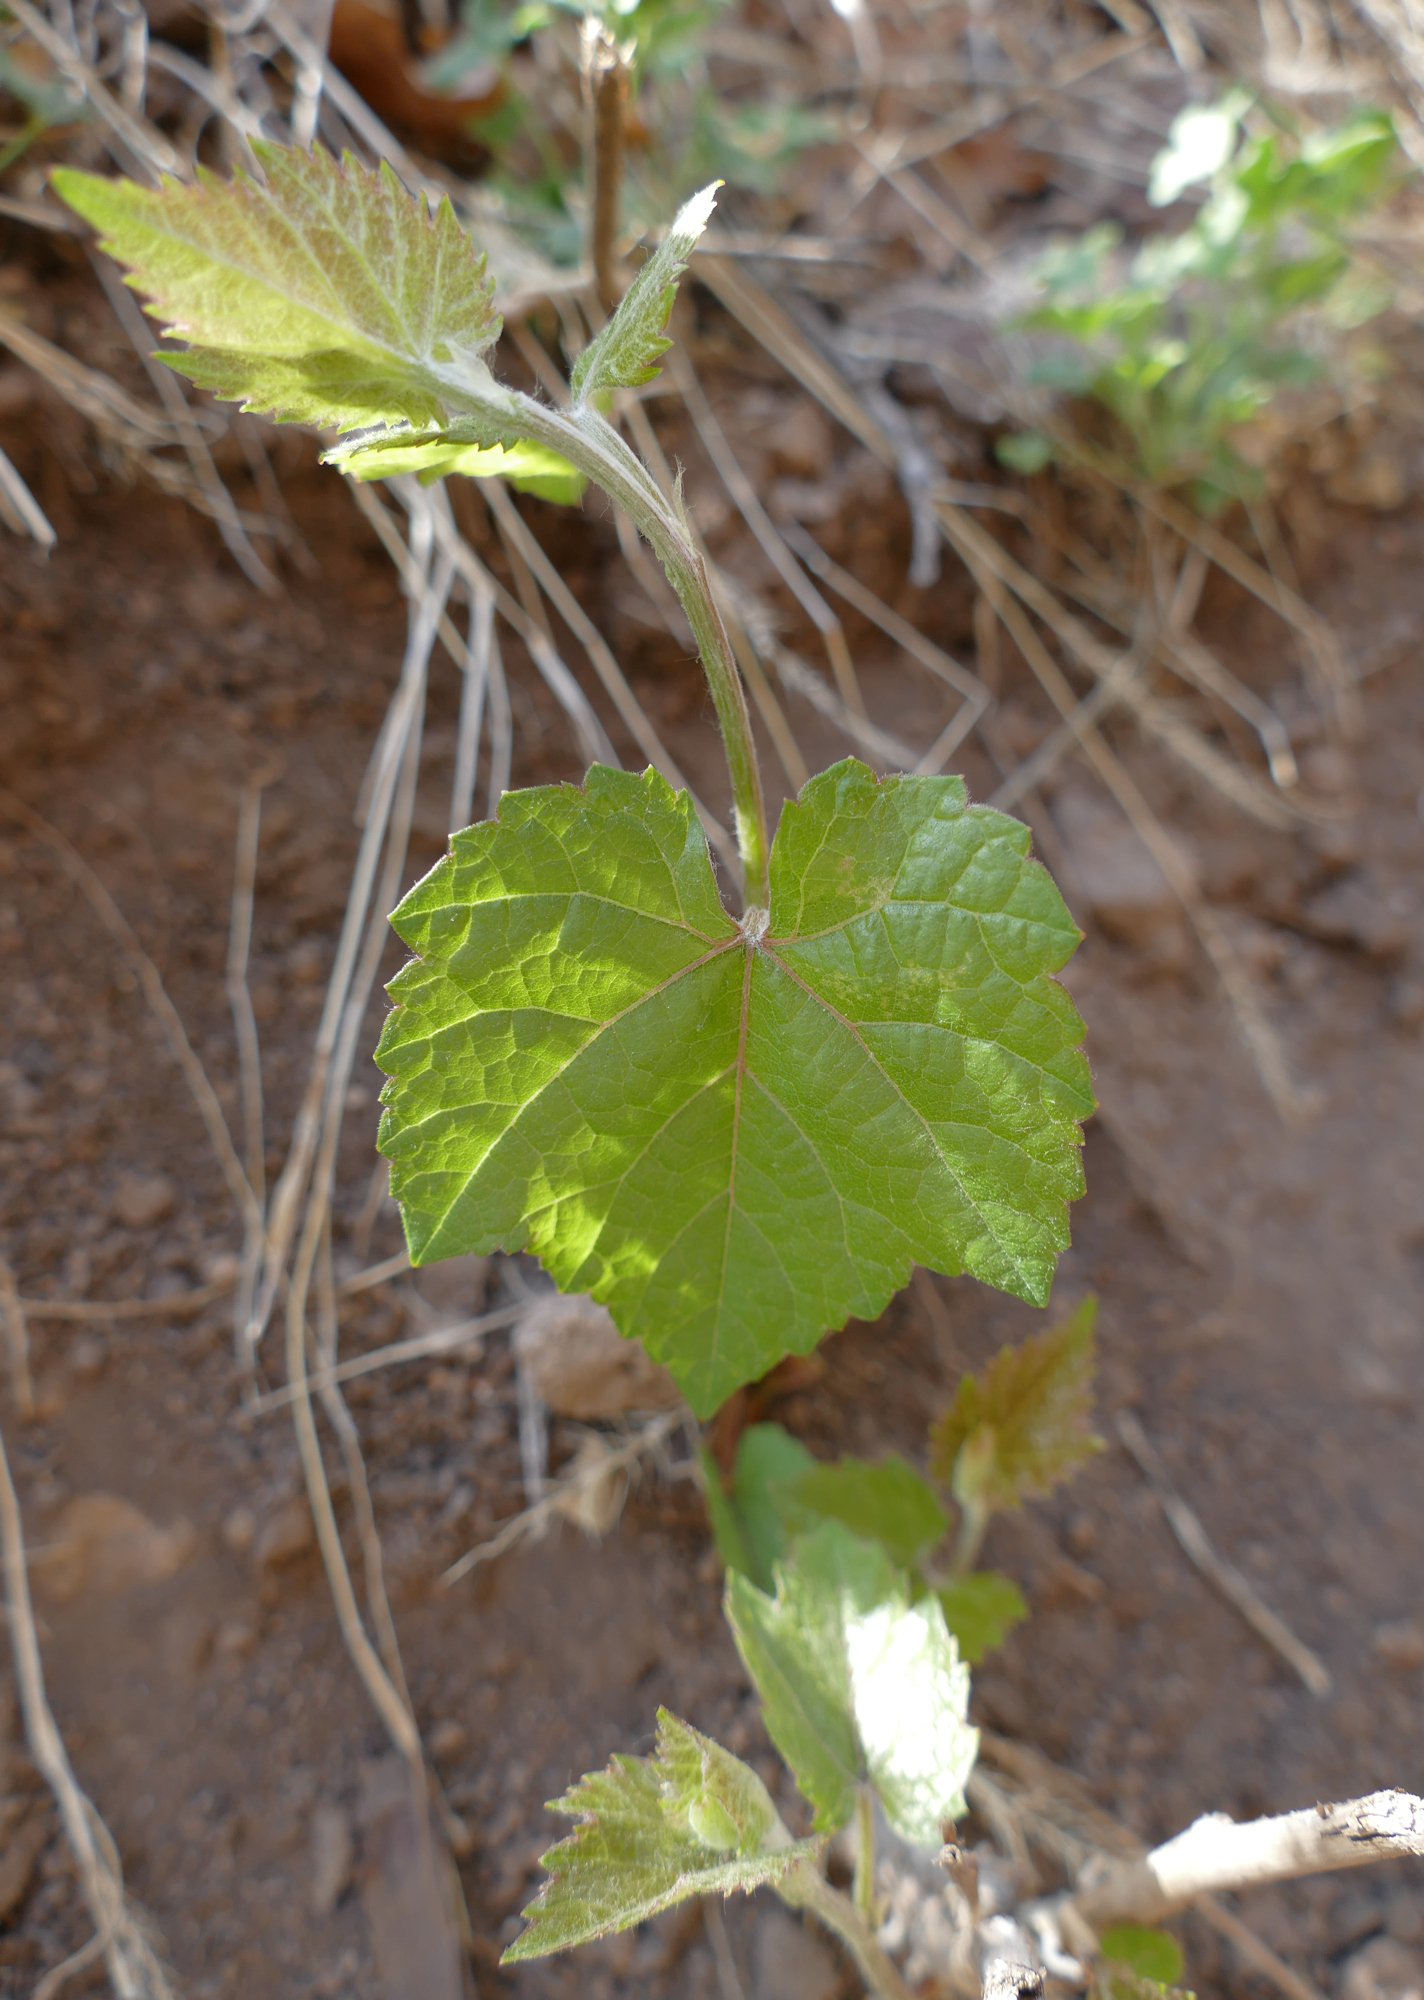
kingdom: Plantae
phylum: Tracheophyta
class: Magnoliopsida
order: Vitales
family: Vitaceae
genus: Vitis
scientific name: Vitis arizonica
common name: Canyon grape
